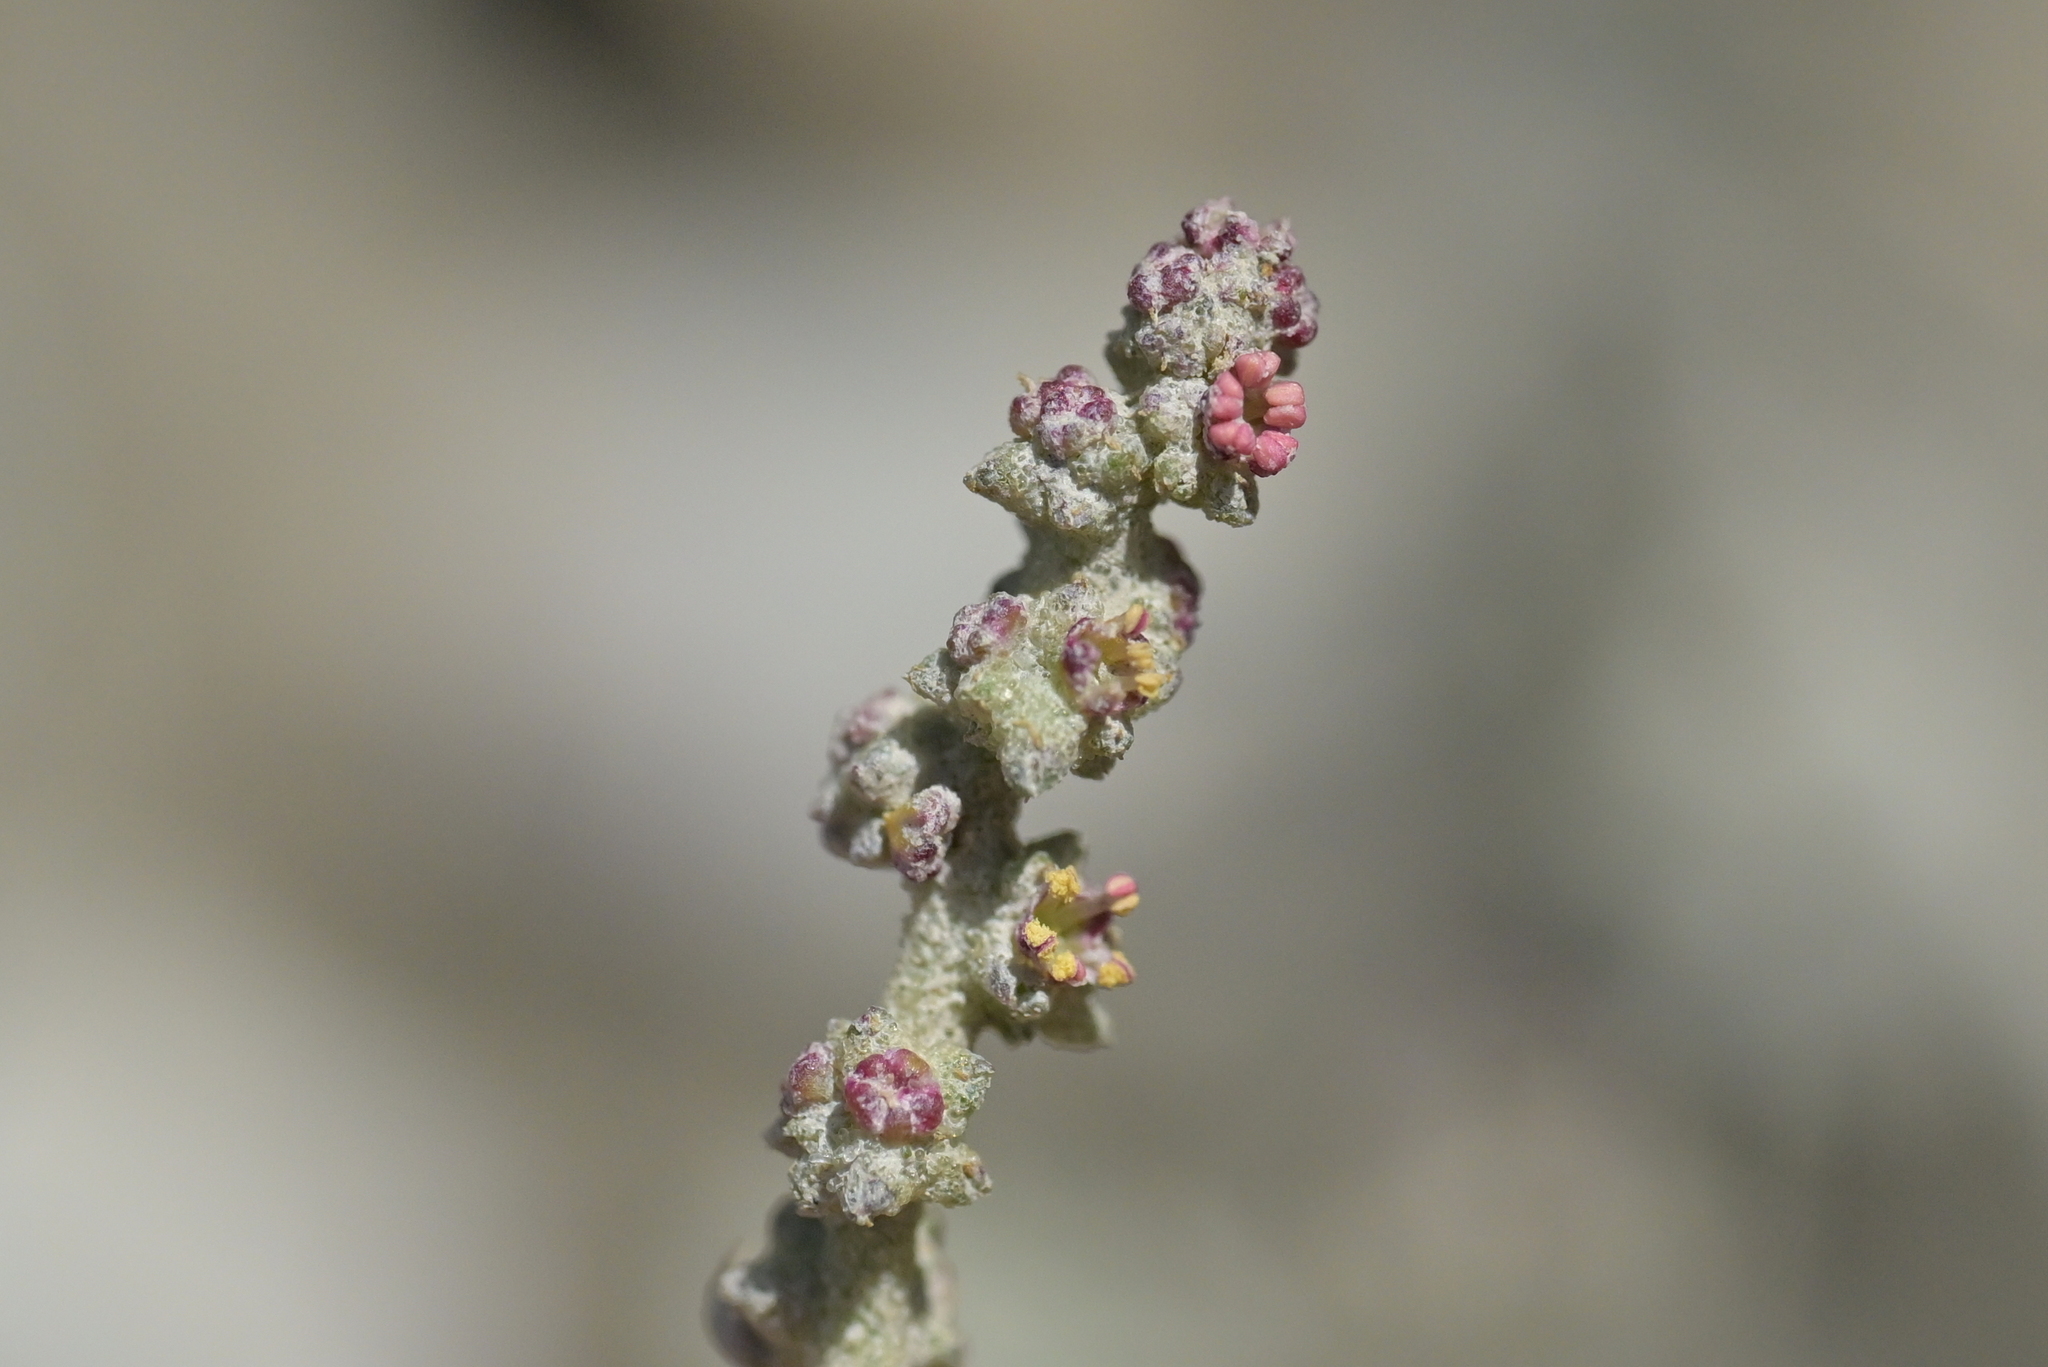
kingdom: Plantae
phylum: Tracheophyta
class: Magnoliopsida
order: Caryophyllales
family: Amaranthaceae
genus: Atriplex
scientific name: Atriplex prostrata
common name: Spear-leaved orache
